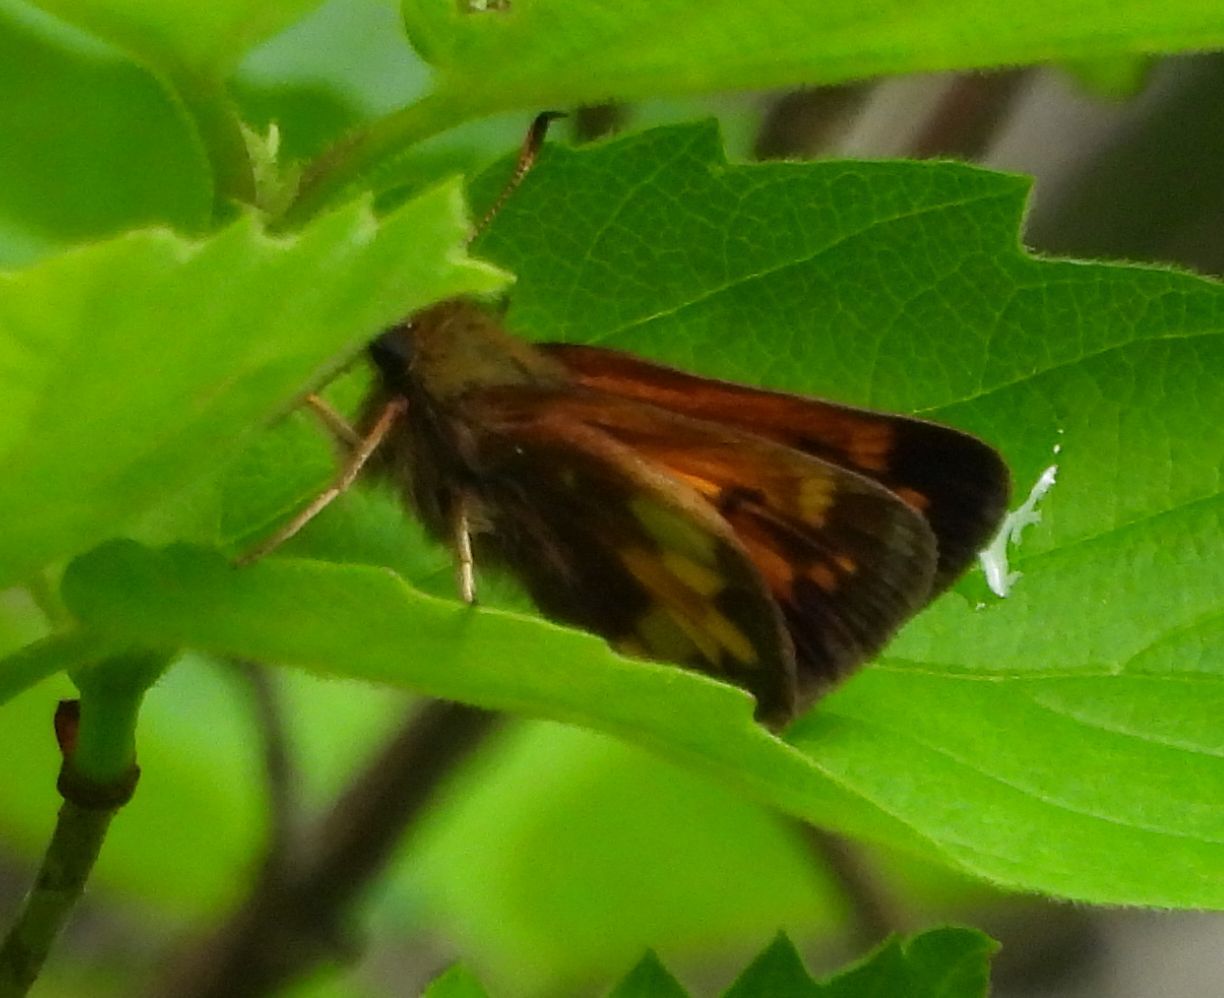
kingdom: Animalia
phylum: Arthropoda
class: Insecta
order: Lepidoptera
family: Hesperiidae
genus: Lon
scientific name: Lon hobomok
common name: Hobomok skipper
